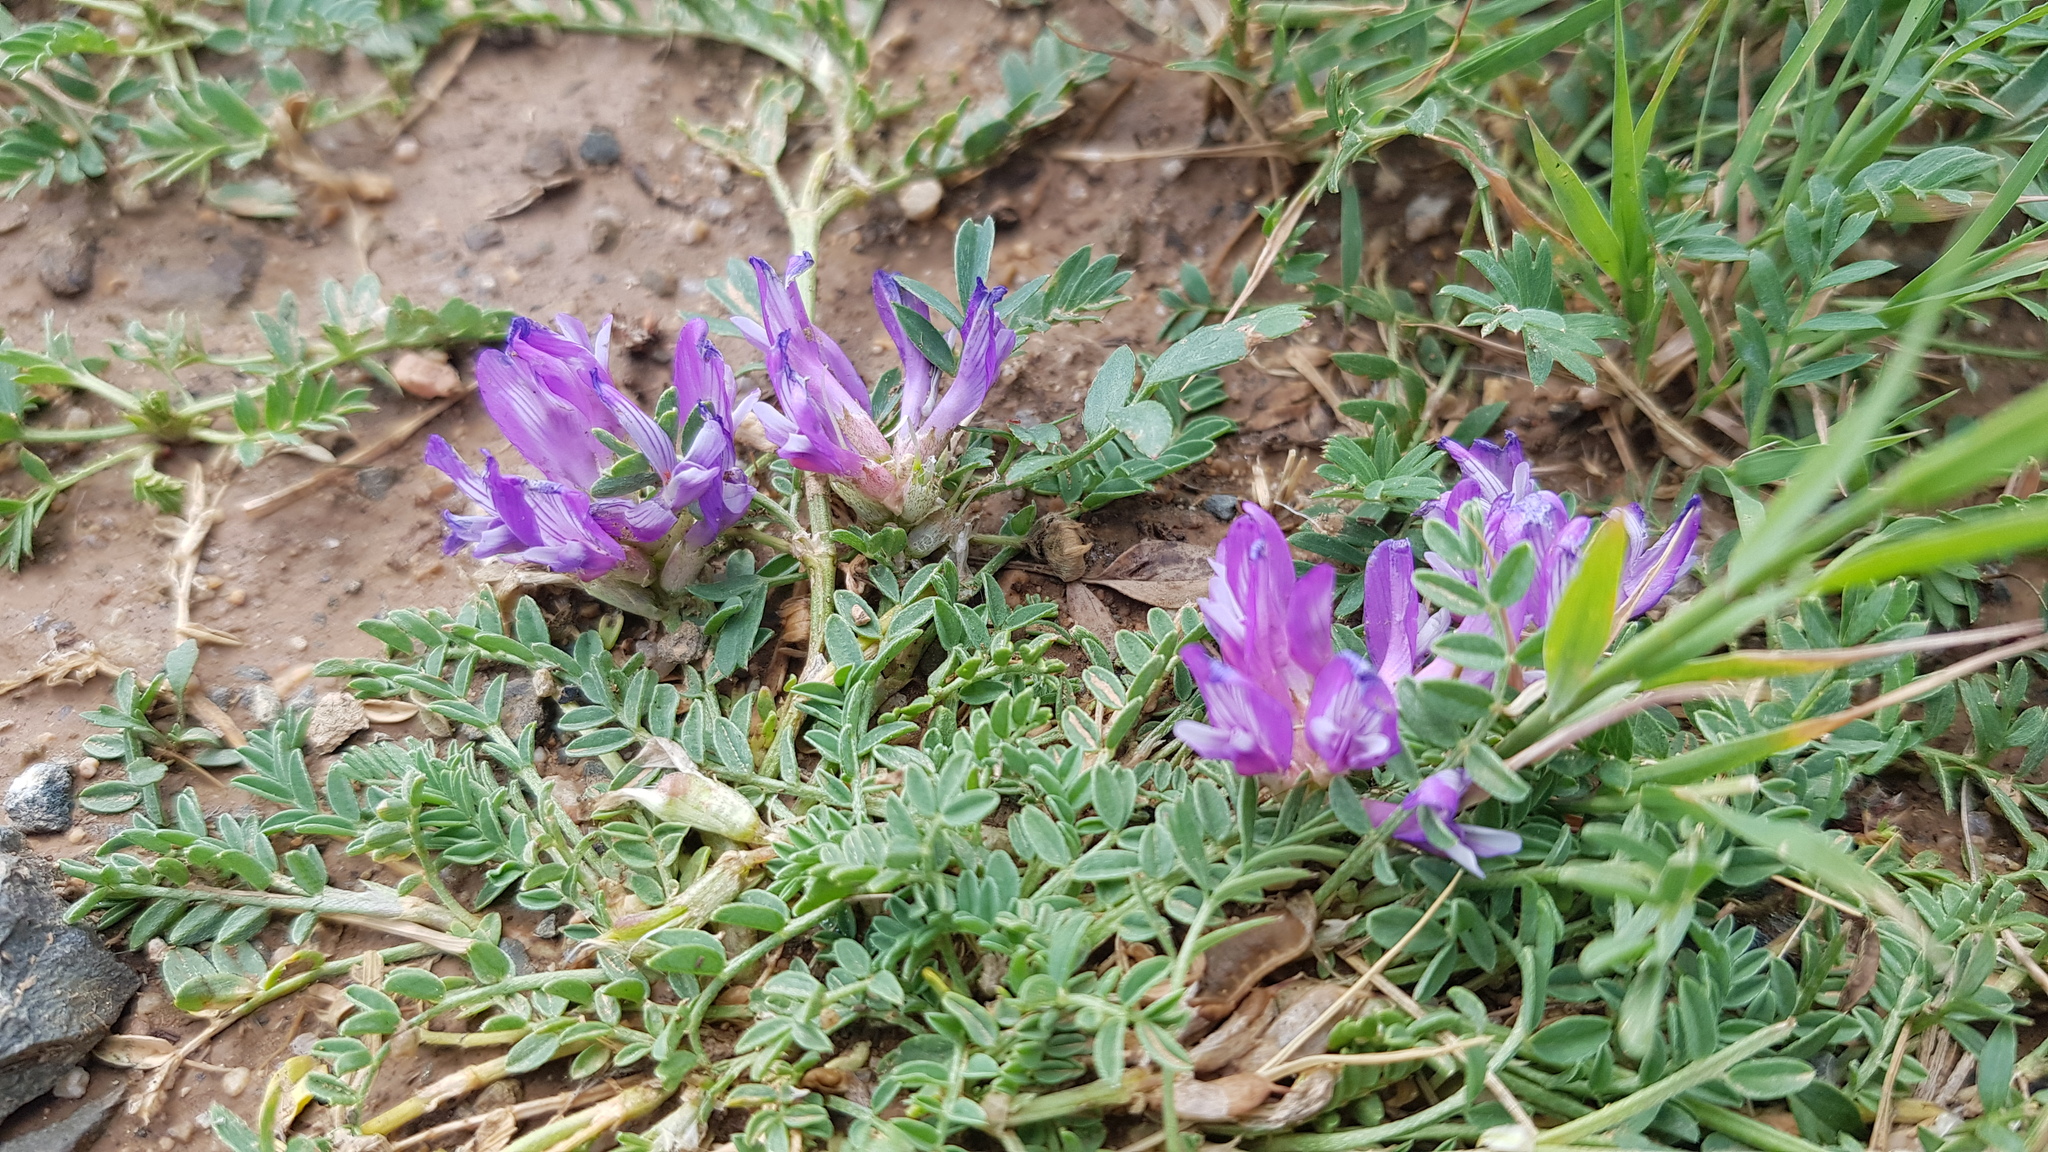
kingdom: Plantae
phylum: Tracheophyta
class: Magnoliopsida
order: Fabales
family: Fabaceae
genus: Astragalus
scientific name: Astragalus laxmannii
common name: Laxmann's milk-vetch
